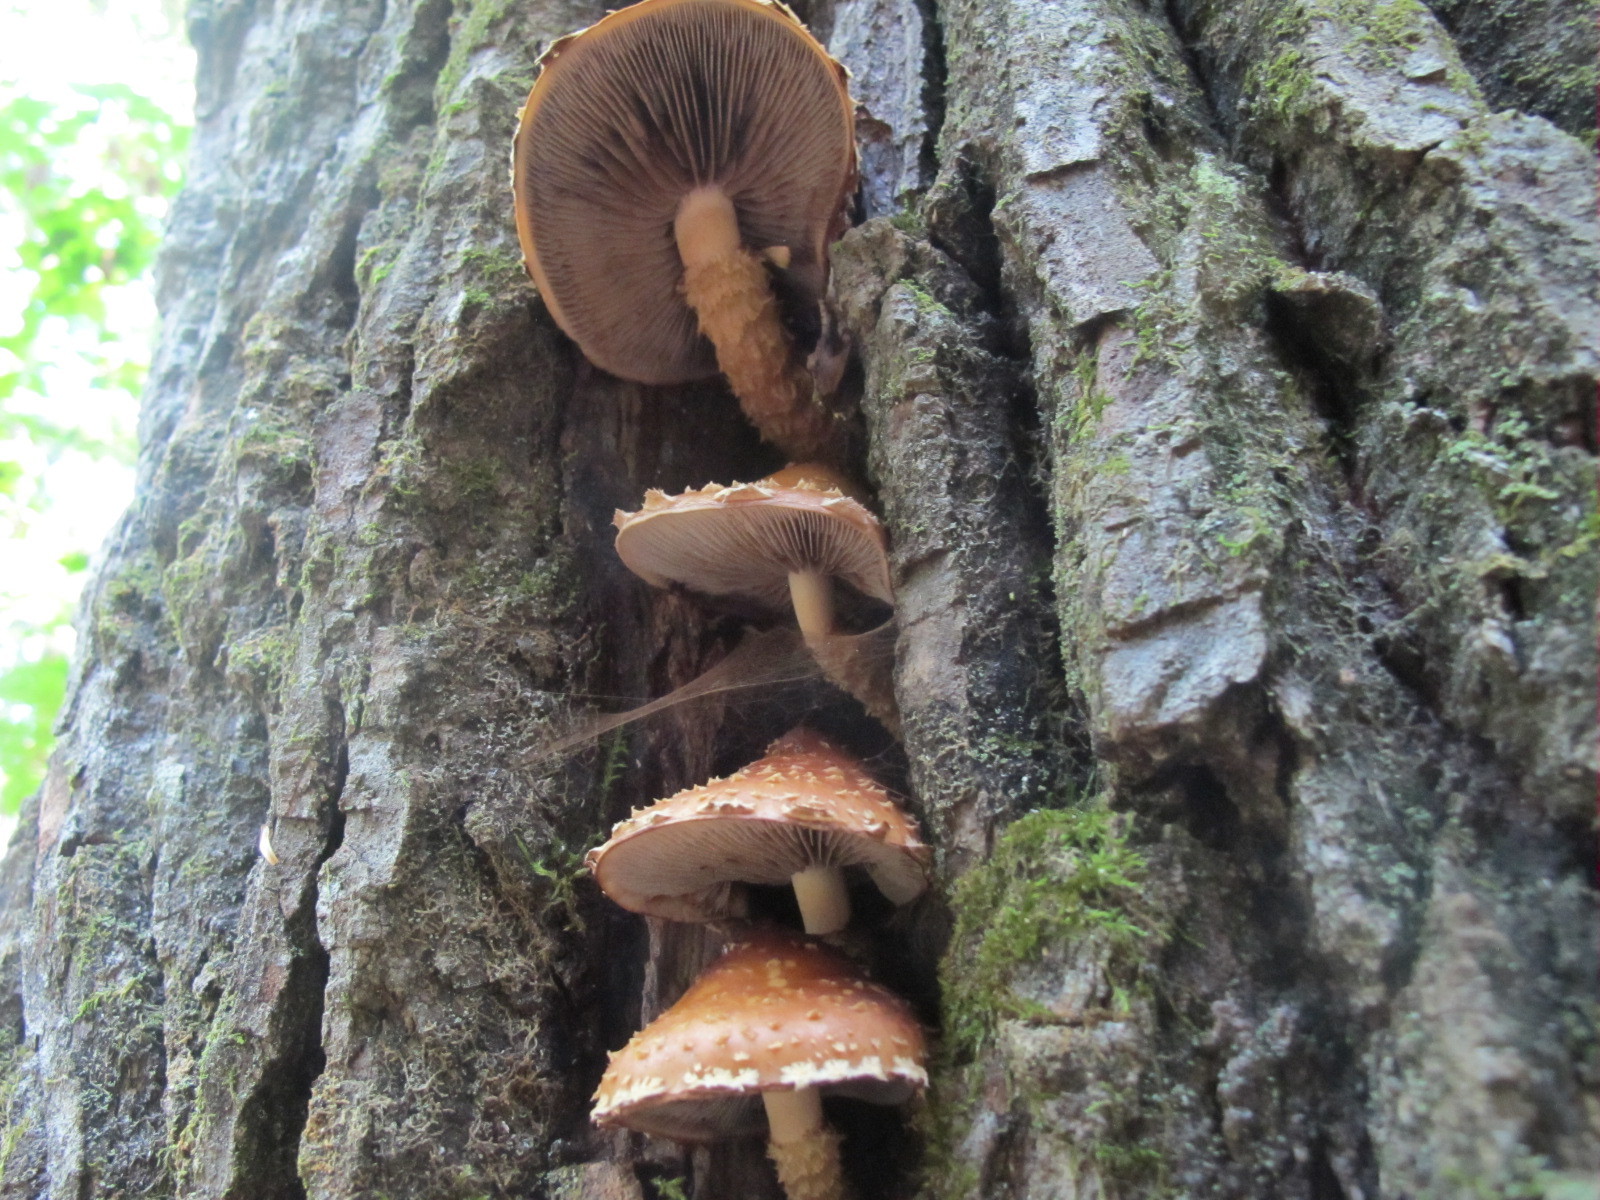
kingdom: Fungi
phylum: Basidiomycota
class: Agaricomycetes
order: Agaricales
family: Tubariaceae
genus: Hemistropharia
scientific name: Hemistropharia albocrenulata
